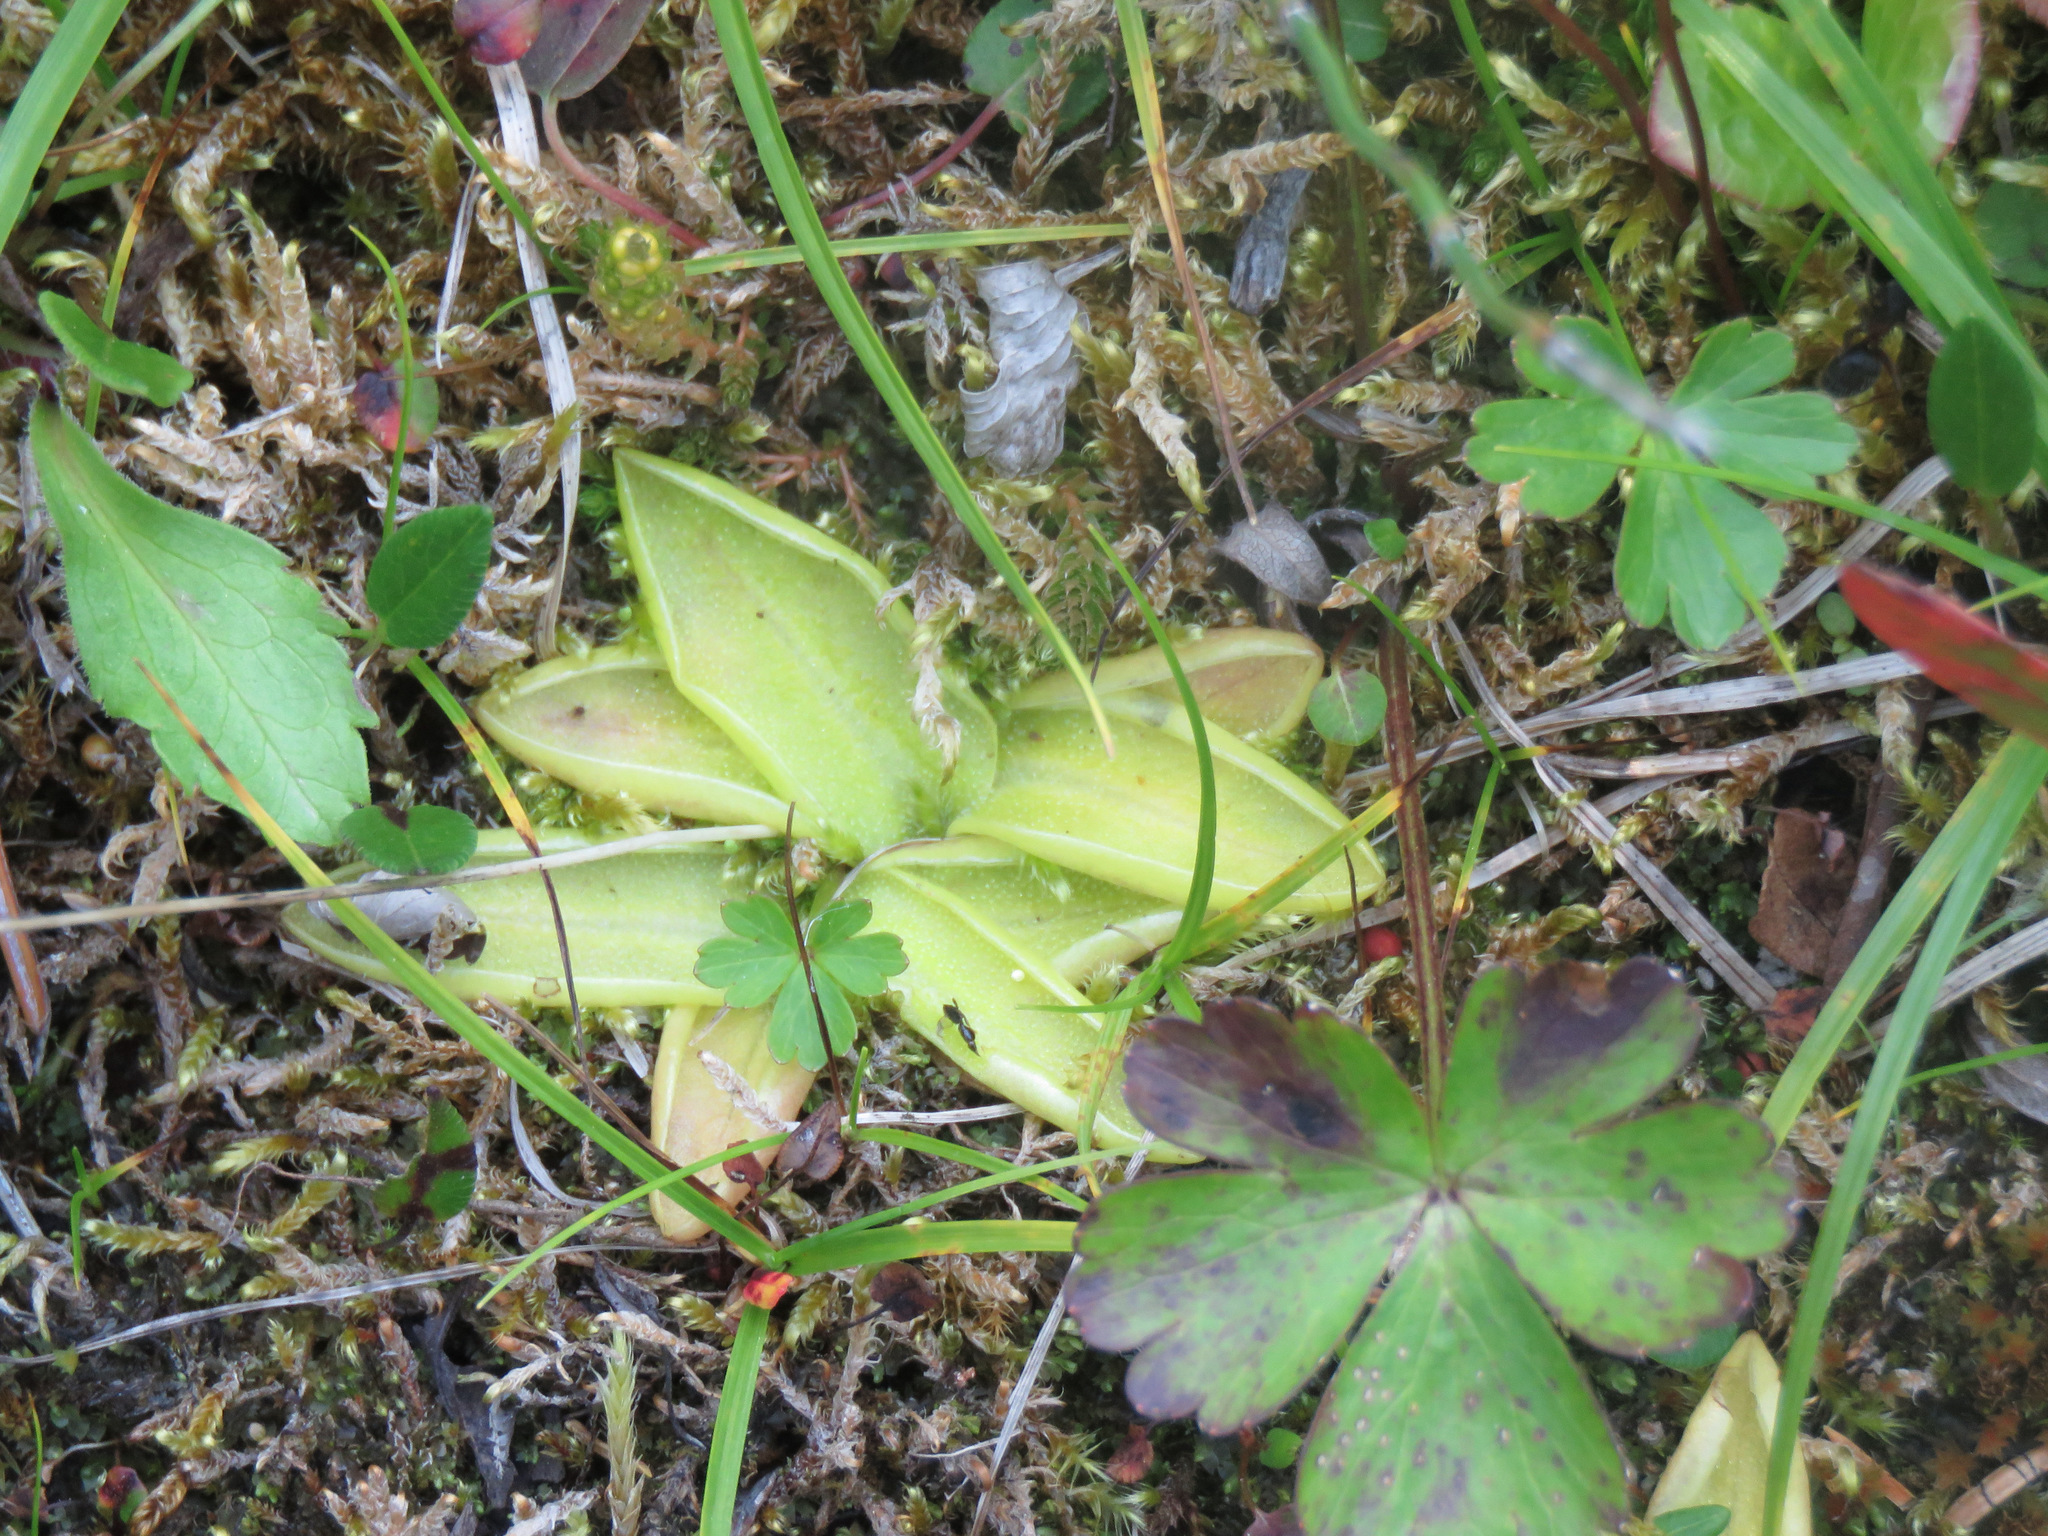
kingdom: Plantae
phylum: Tracheophyta
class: Magnoliopsida
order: Lamiales
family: Lentibulariaceae
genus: Pinguicula
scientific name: Pinguicula vulgaris
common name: Common butterwort
